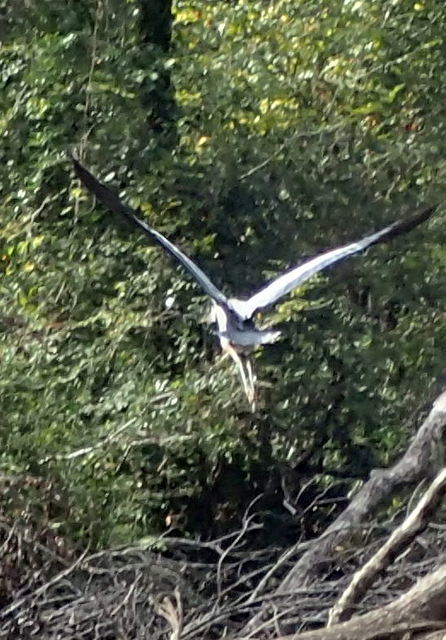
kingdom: Animalia
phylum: Chordata
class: Aves
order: Pelecaniformes
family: Ardeidae
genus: Ardea
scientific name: Ardea herodias
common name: Great blue heron
